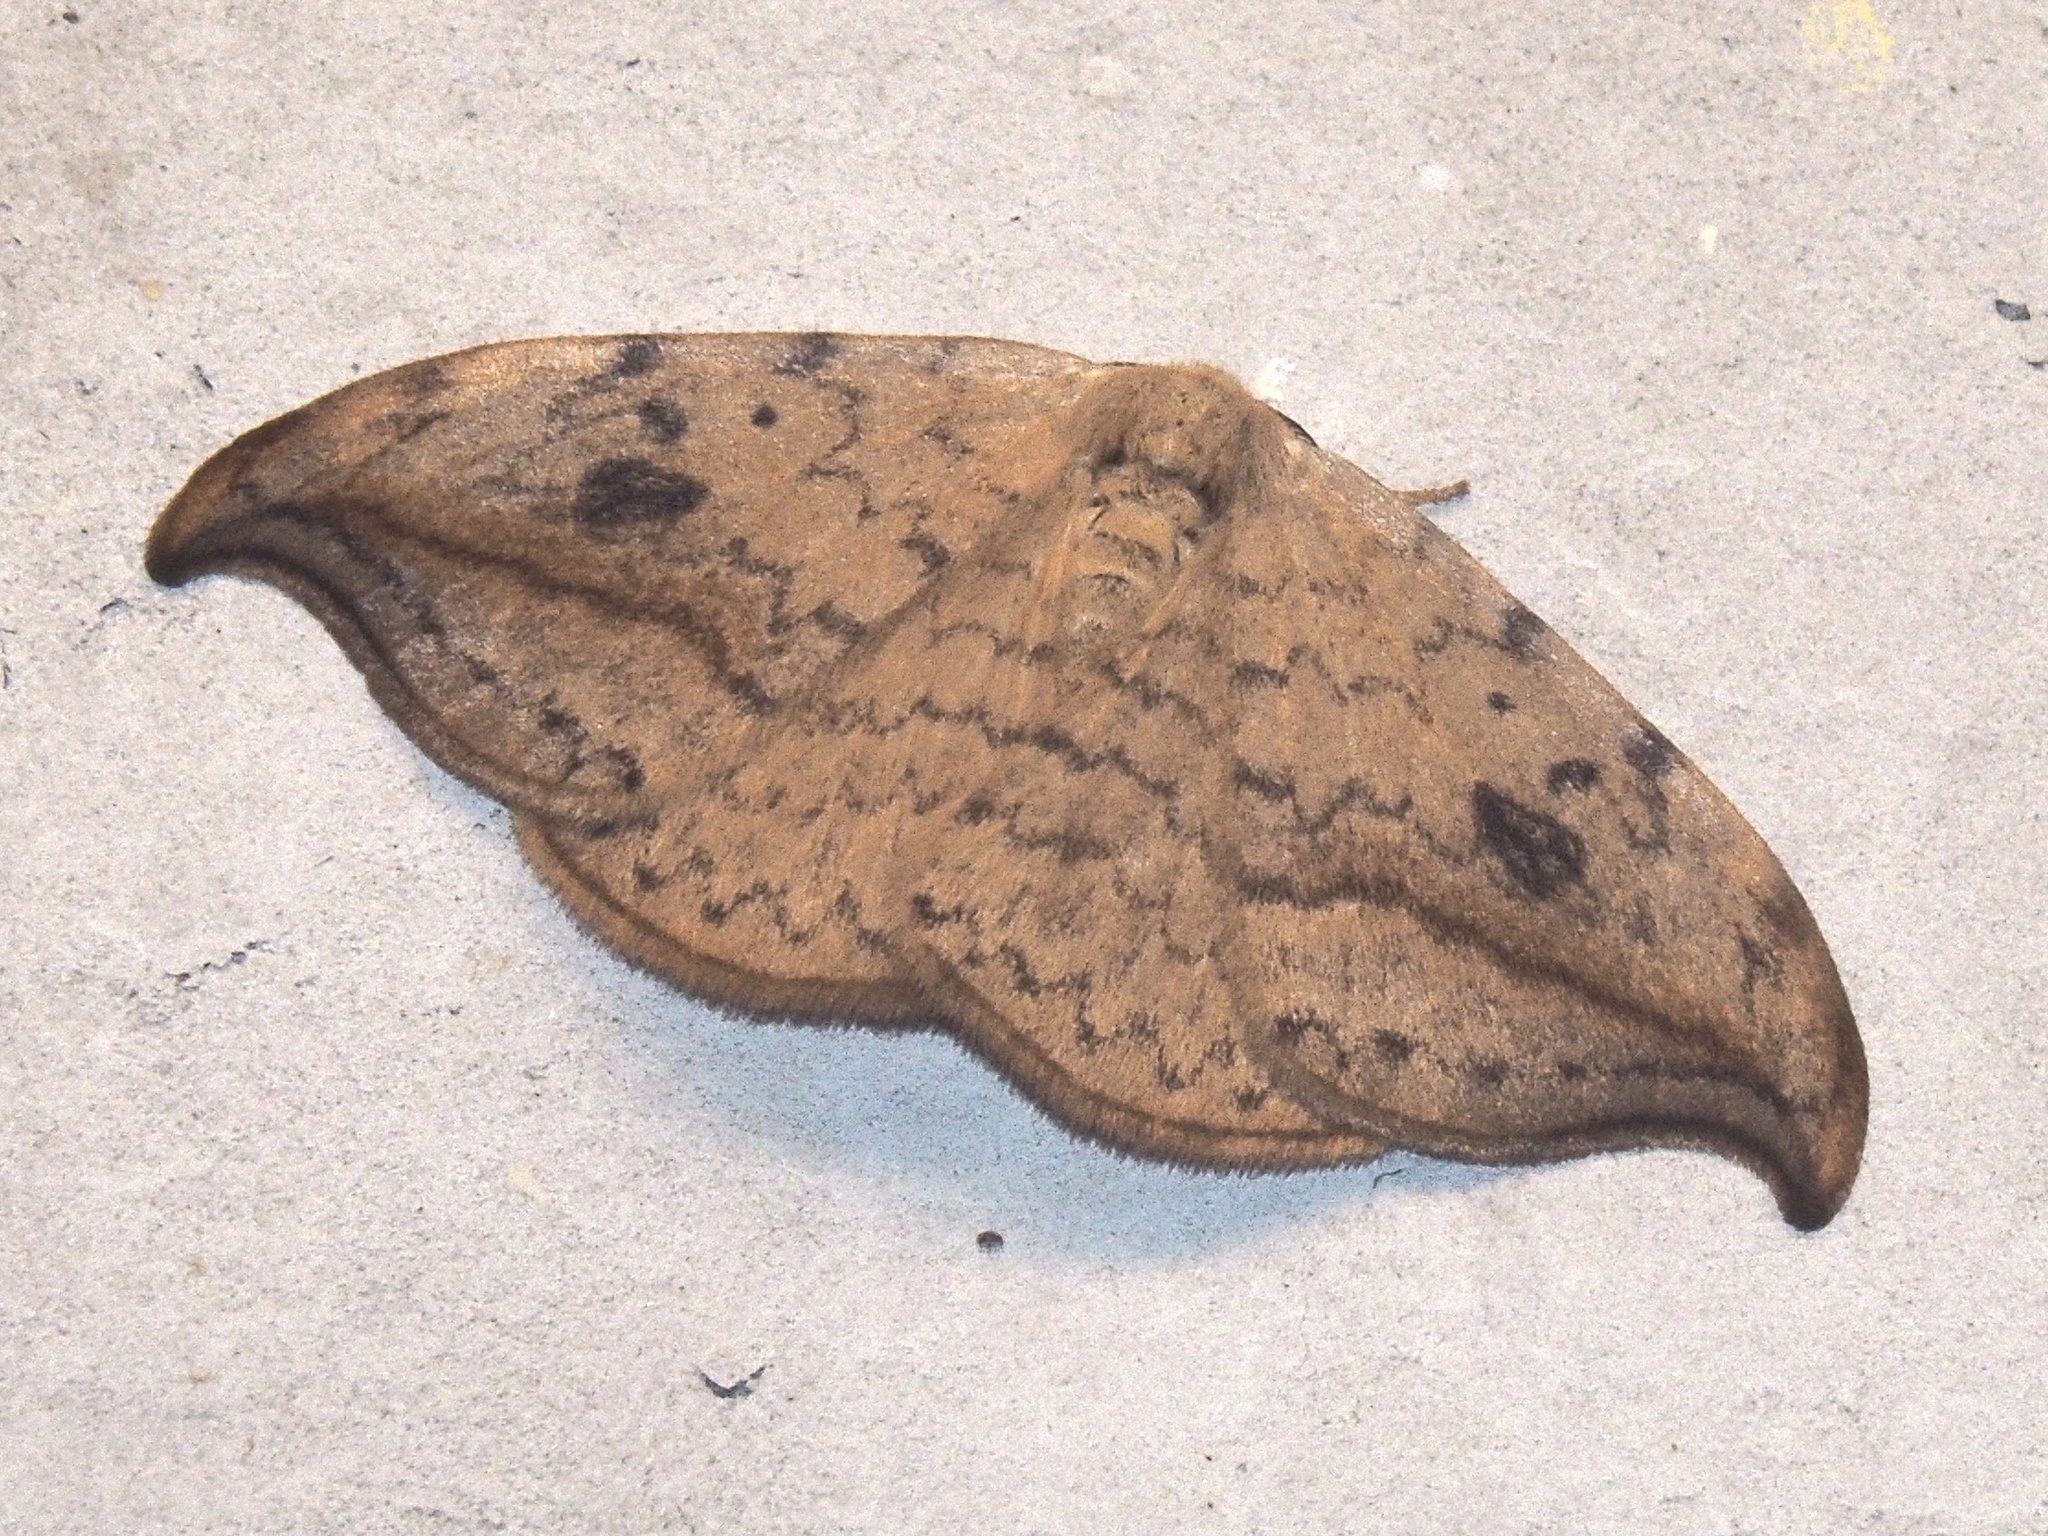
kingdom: Animalia
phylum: Arthropoda
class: Insecta
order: Lepidoptera
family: Drepanidae
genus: Drepana
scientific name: Drepana falcataria
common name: Pebble hook-tip
